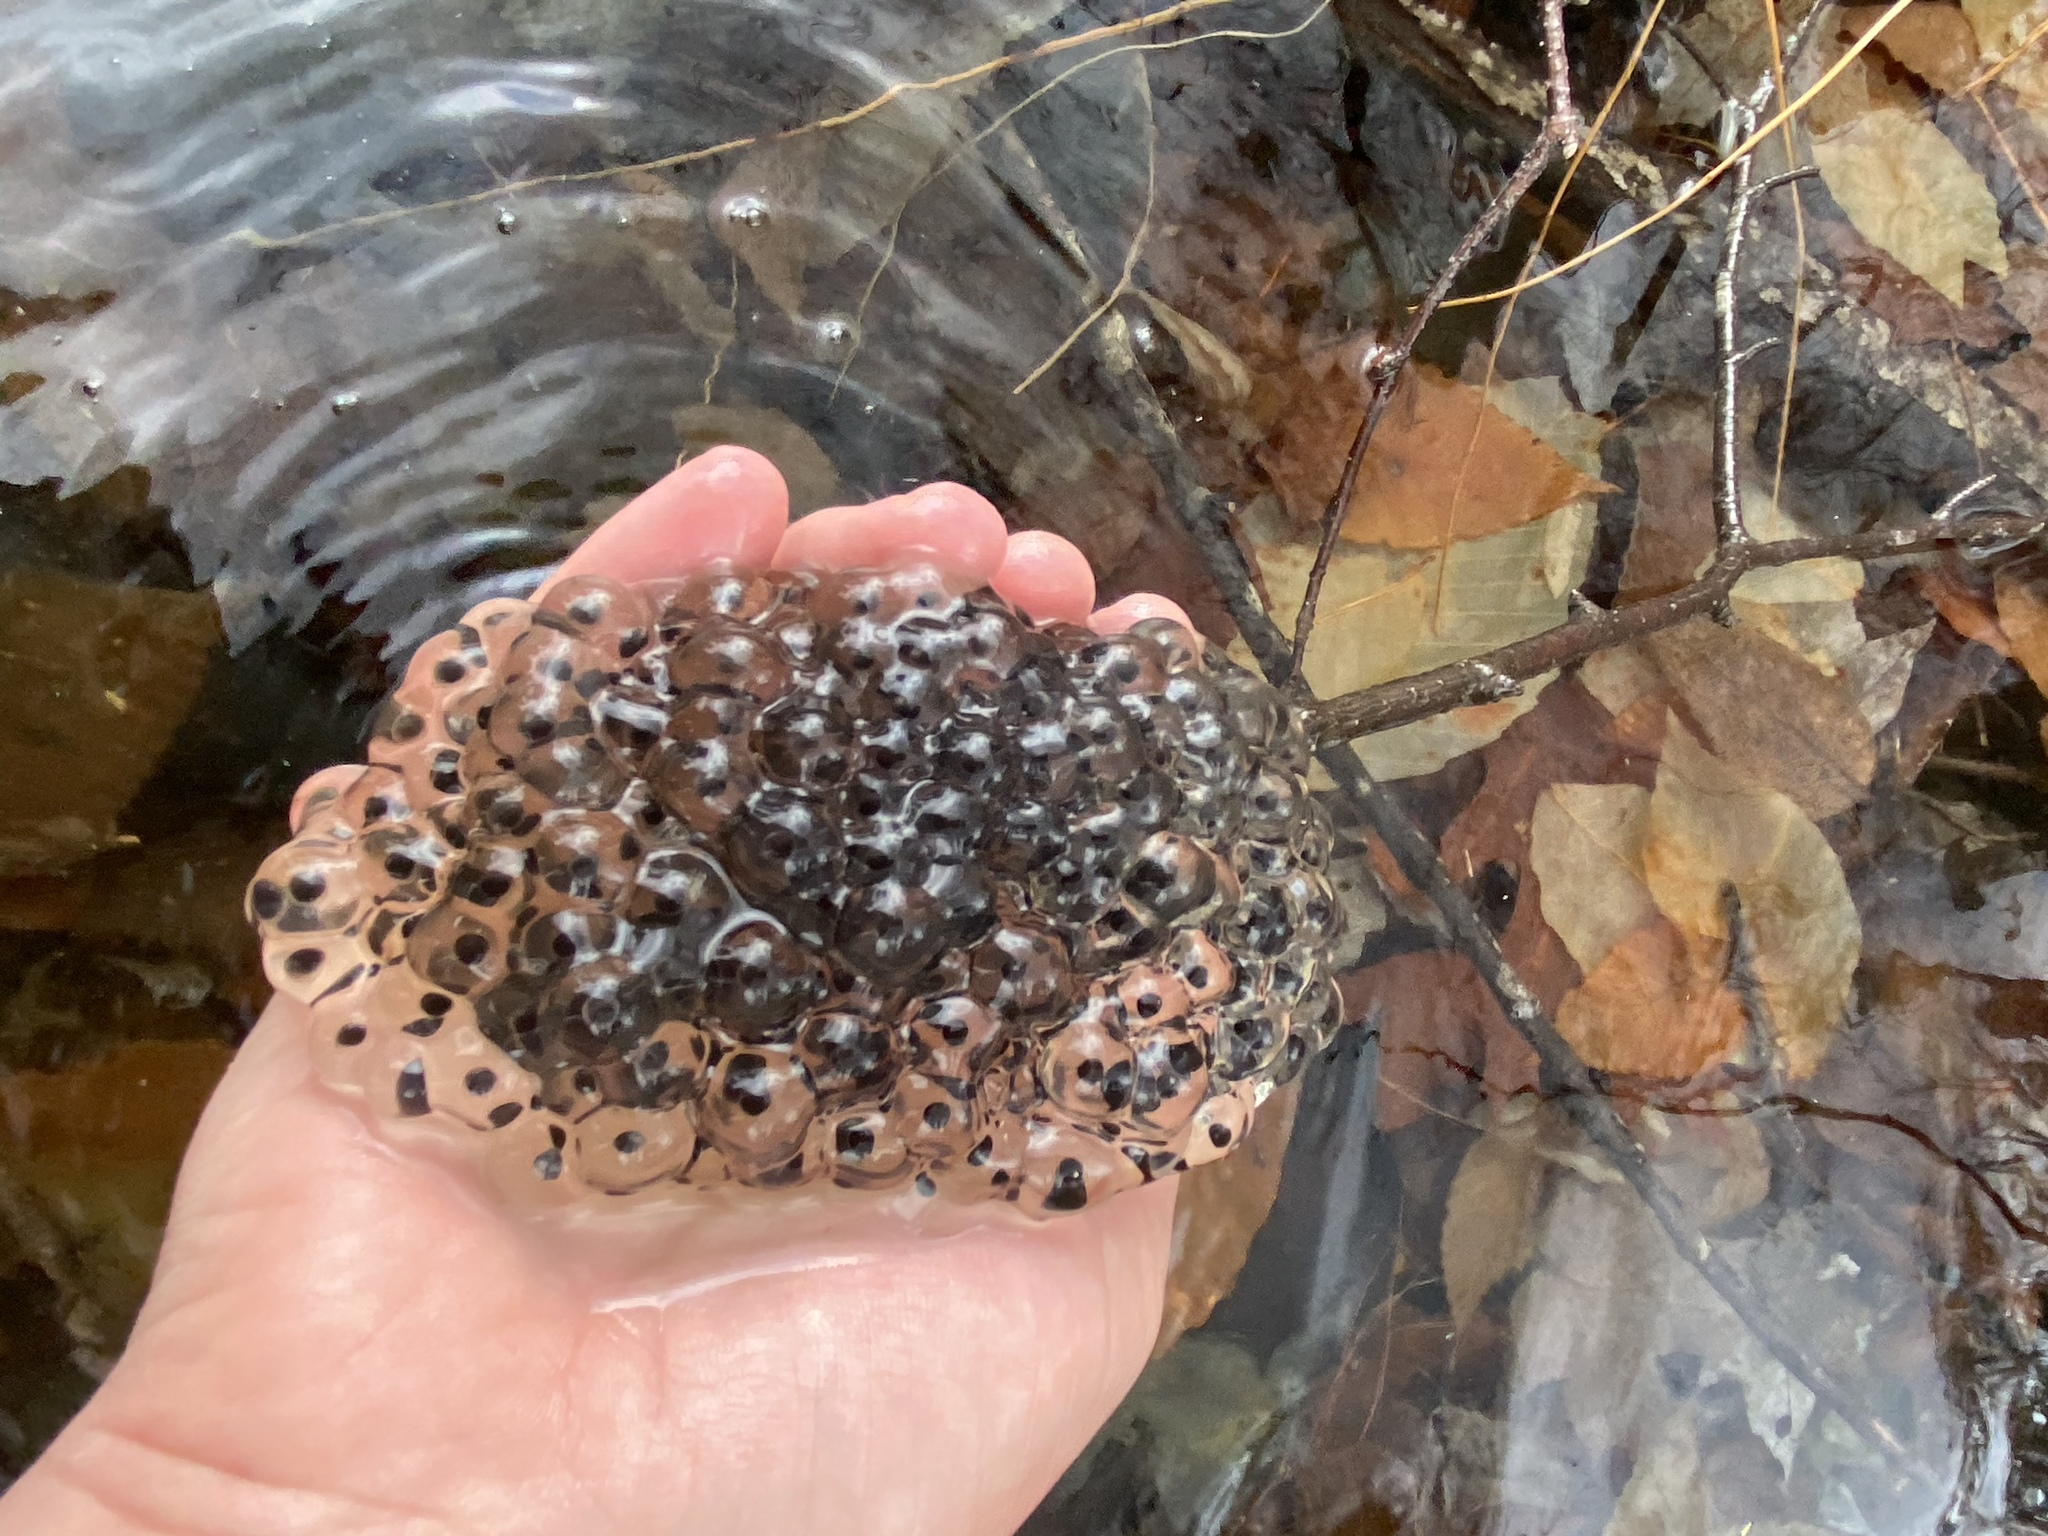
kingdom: Animalia
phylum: Chordata
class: Amphibia
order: Anura
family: Ranidae
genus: Lithobates
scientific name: Lithobates sylvaticus
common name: Wood frog
